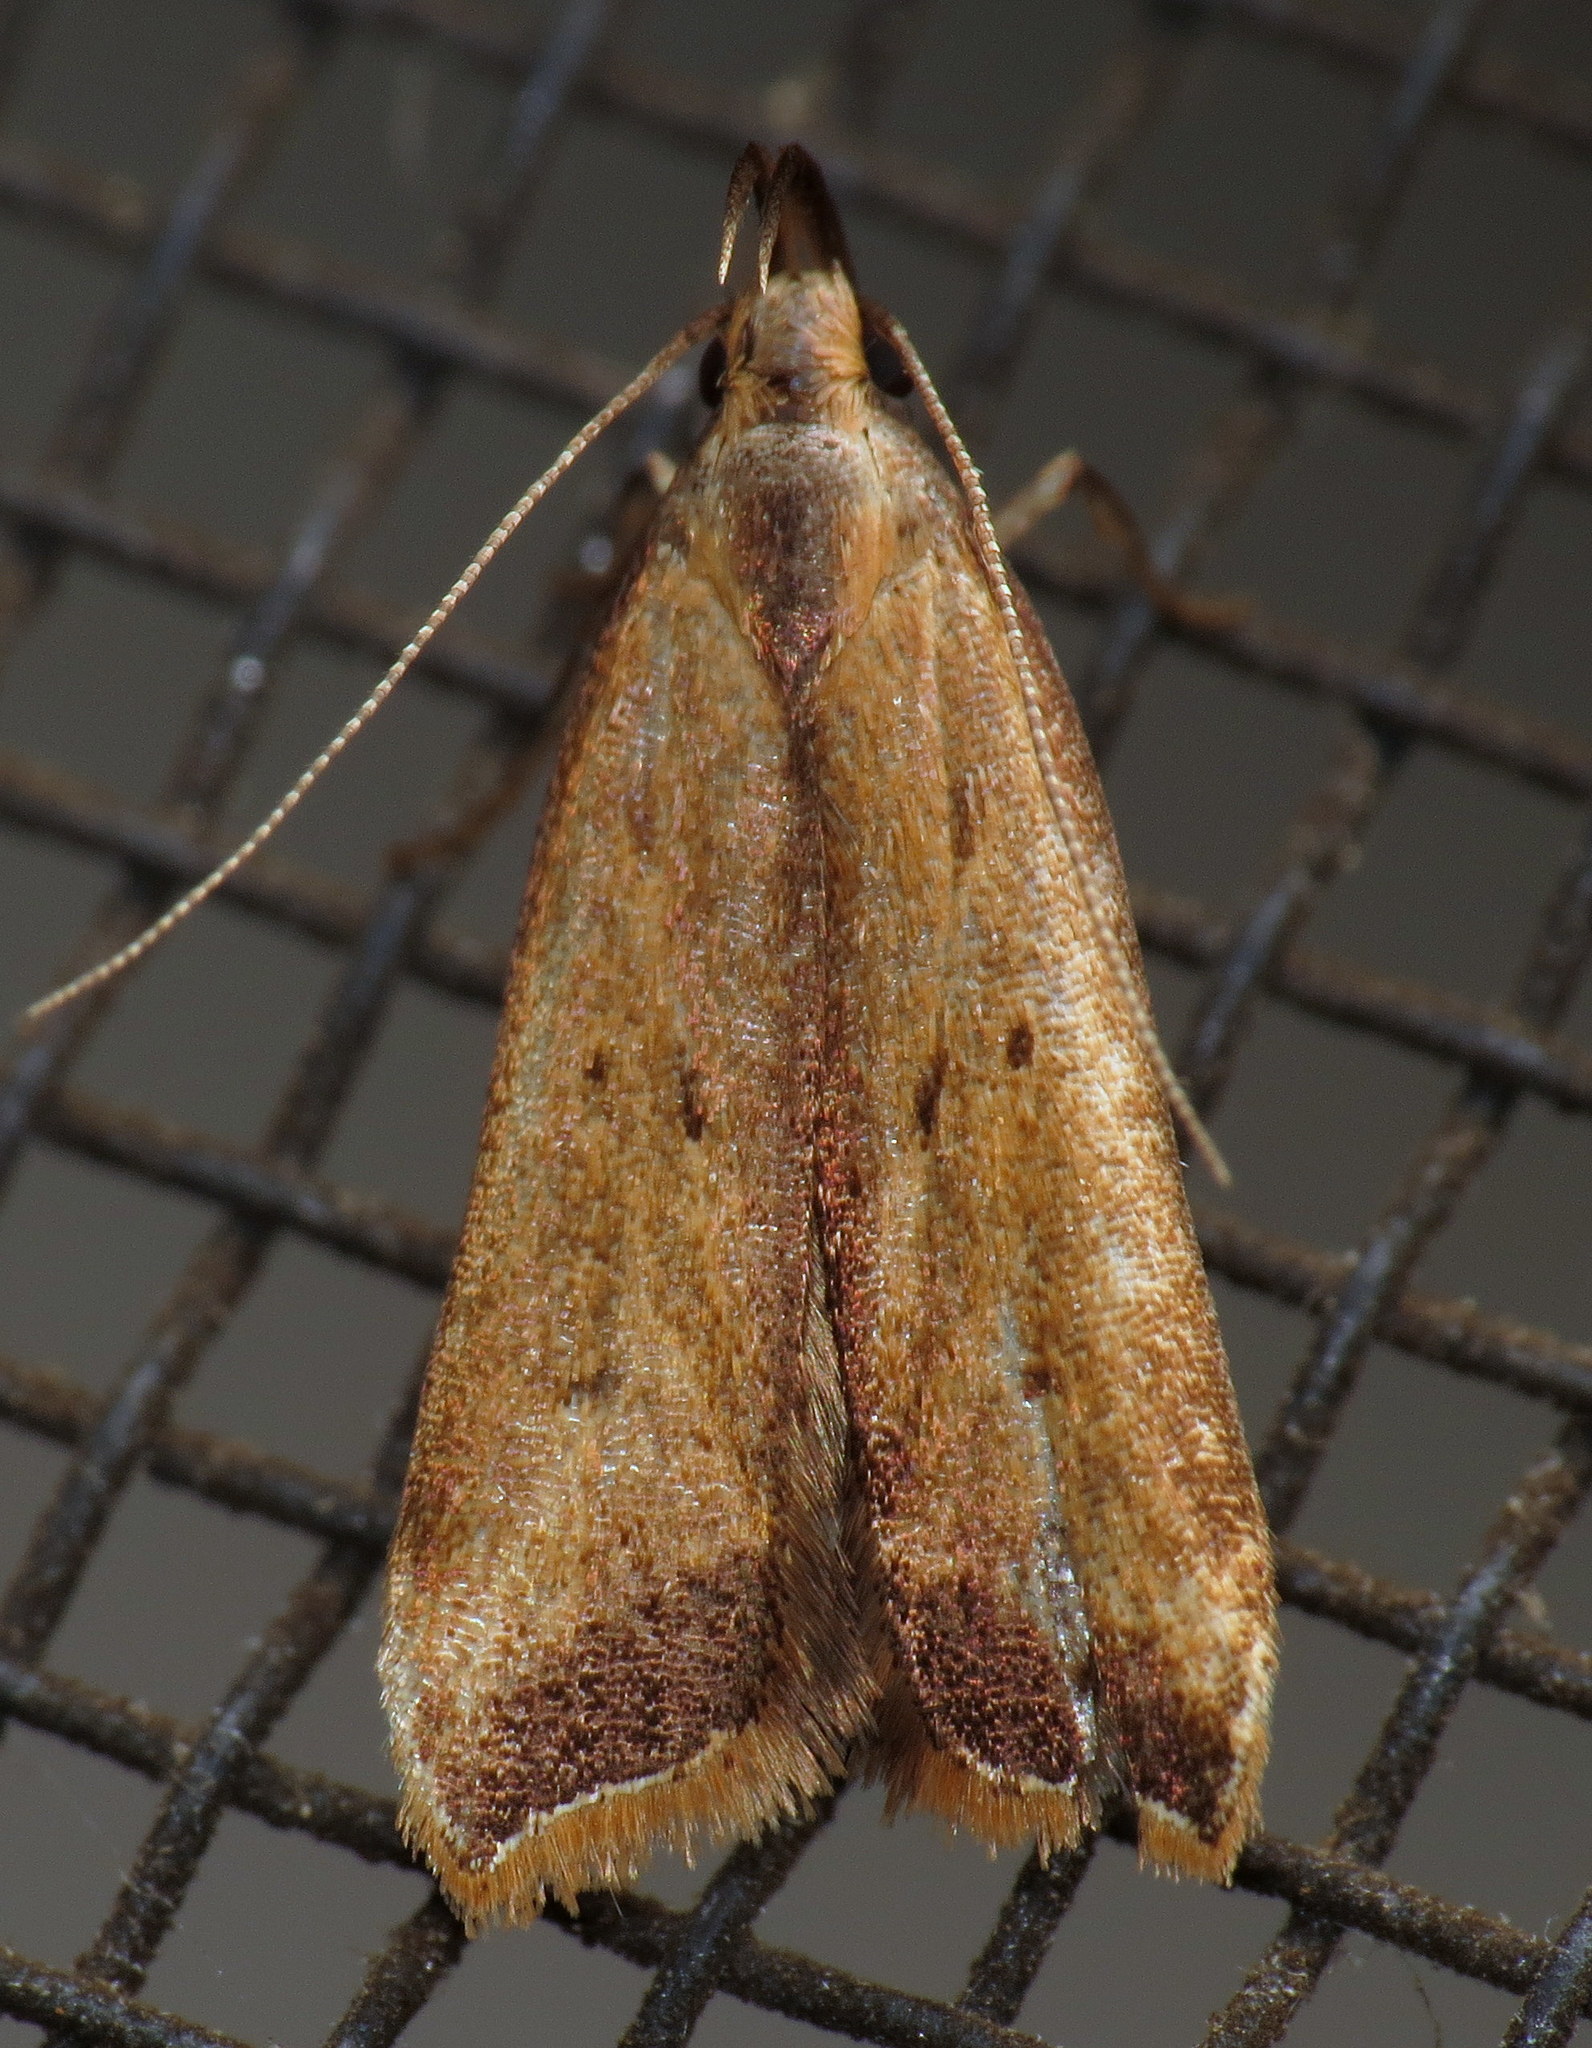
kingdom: Animalia
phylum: Arthropoda
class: Insecta
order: Lepidoptera
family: Gelechiidae
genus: Dichomeris
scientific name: Dichomeris heriguronis
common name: Black-edged dichomeris moth
